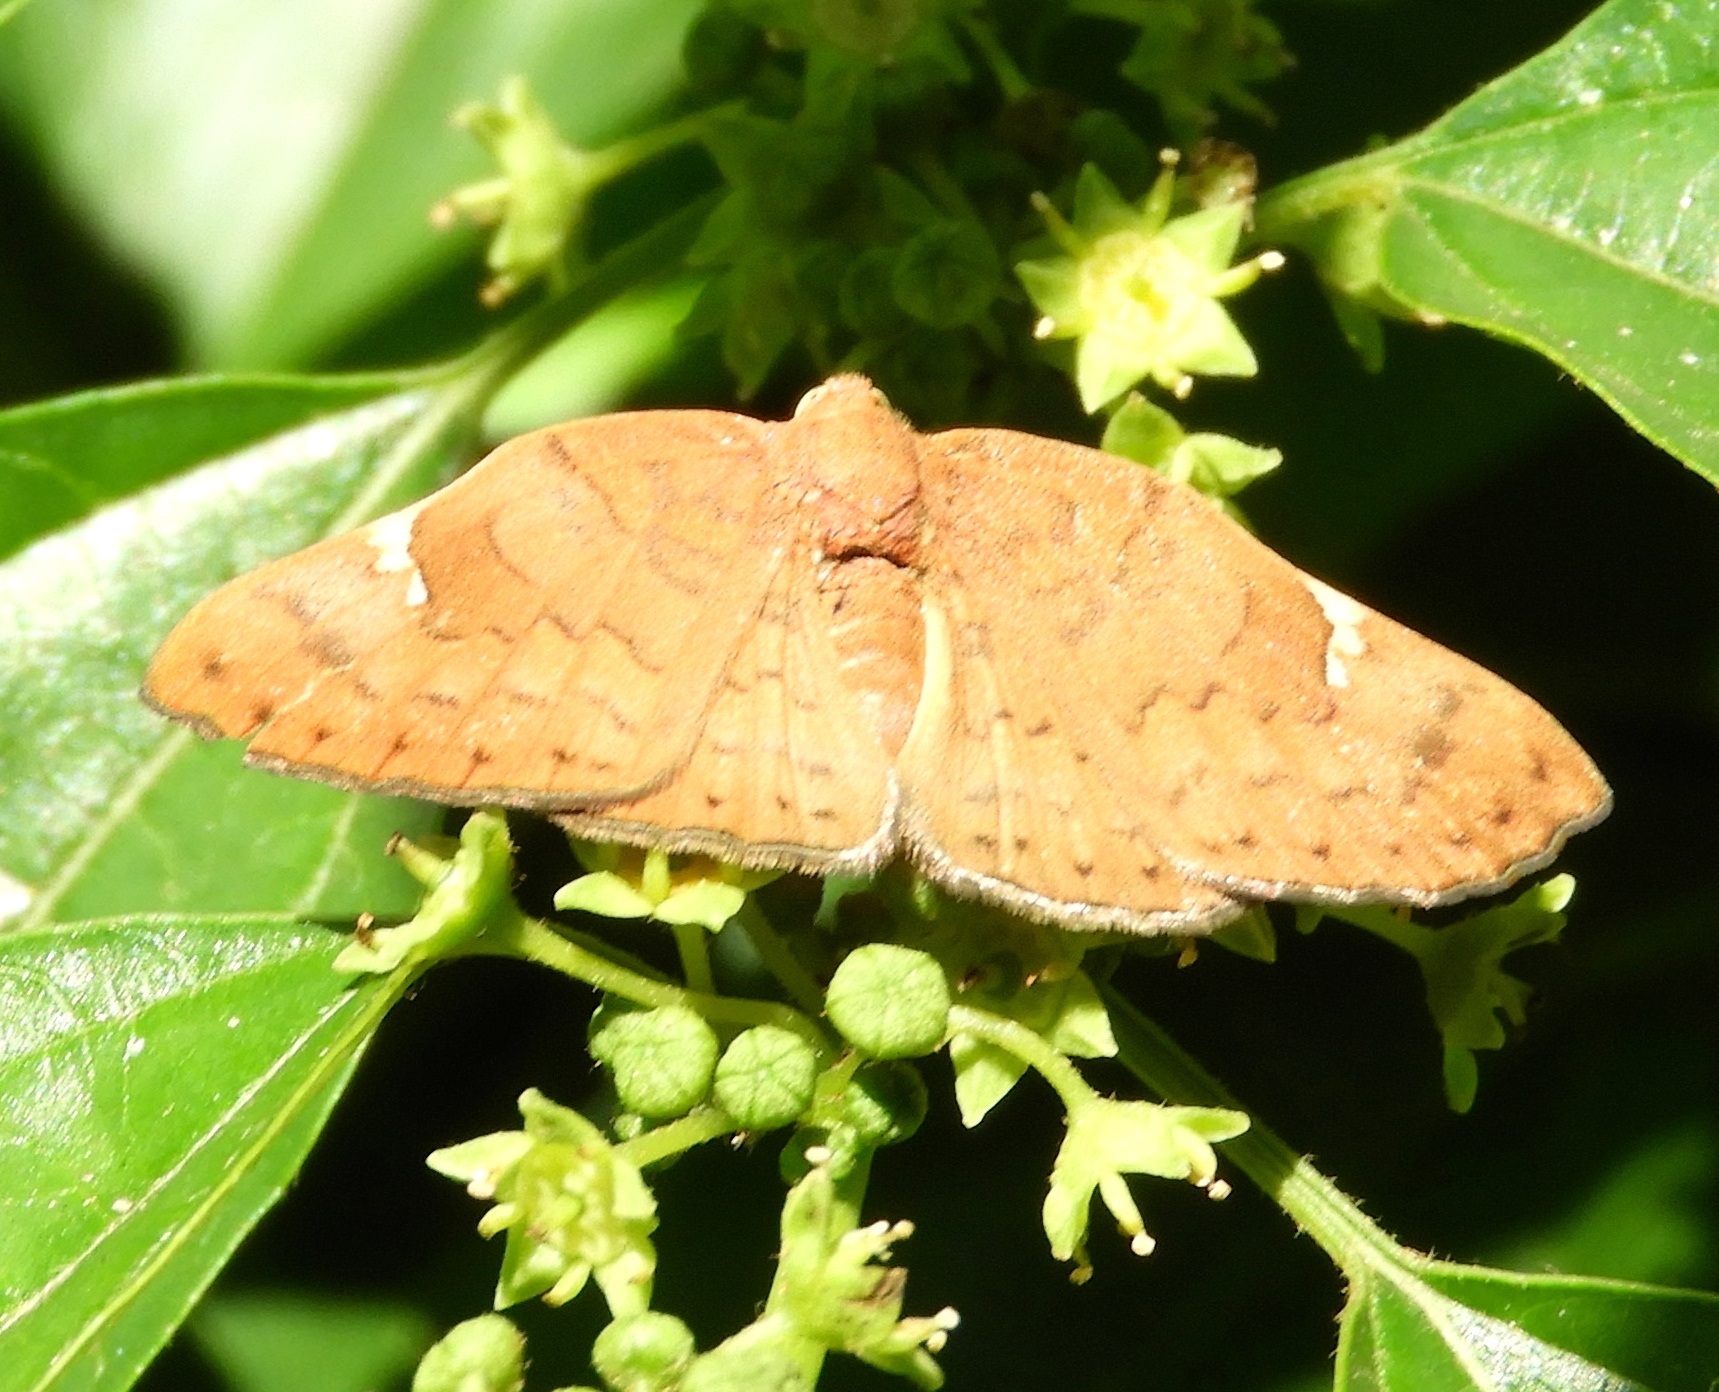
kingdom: Animalia
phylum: Arthropoda
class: Insecta
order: Lepidoptera
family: Riodinidae
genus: Curvie
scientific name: Curvie emesia
